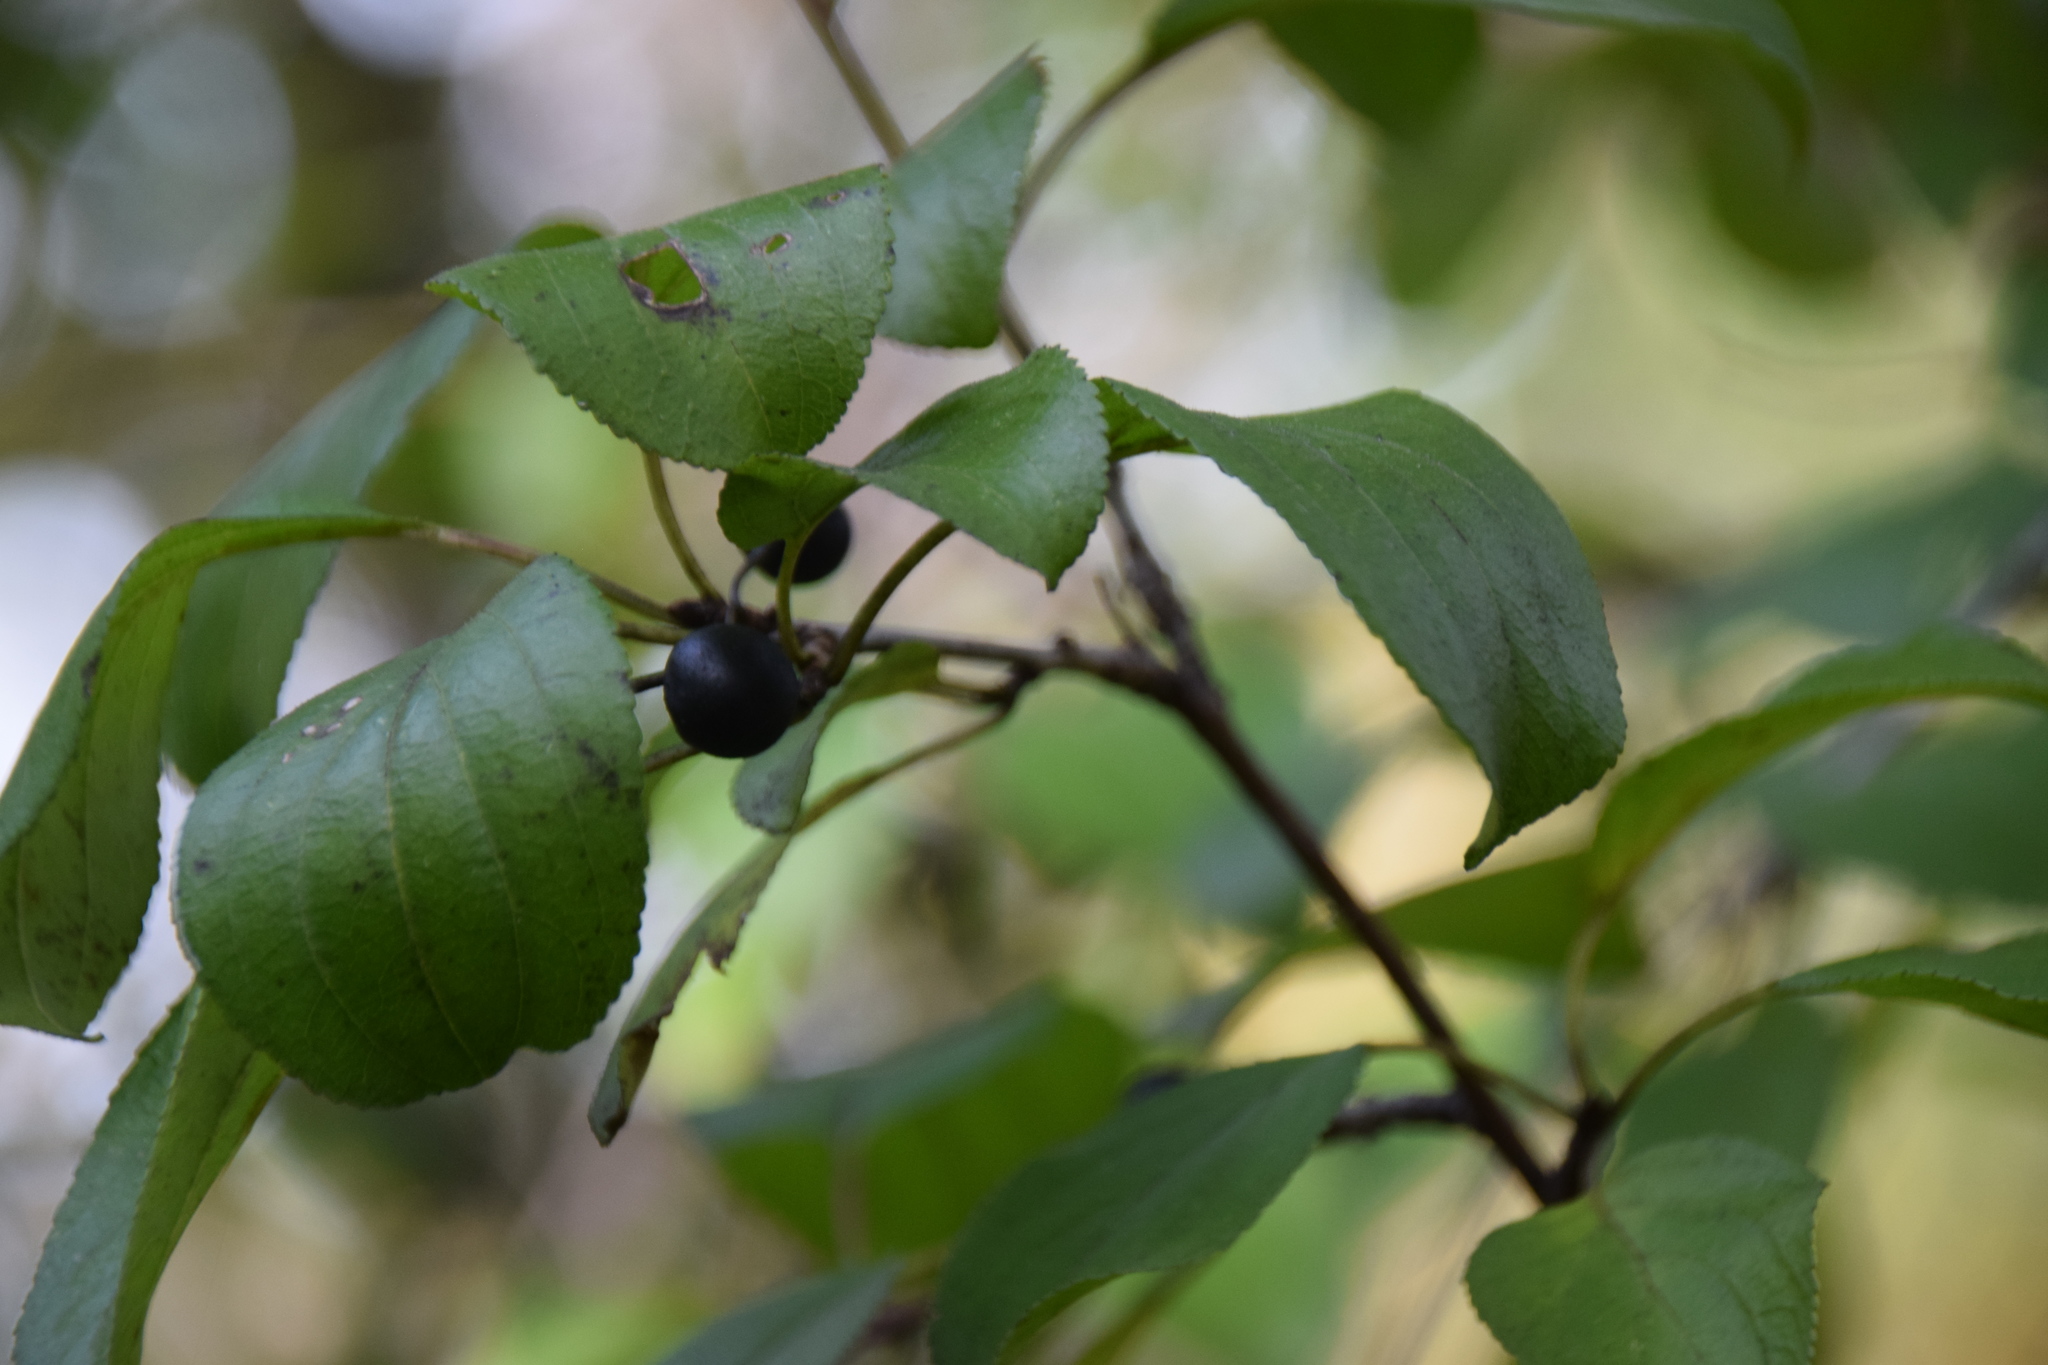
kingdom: Plantae
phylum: Tracheophyta
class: Magnoliopsida
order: Rosales
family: Rhamnaceae
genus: Rhamnus
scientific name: Rhamnus cathartica
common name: Common buckthorn
